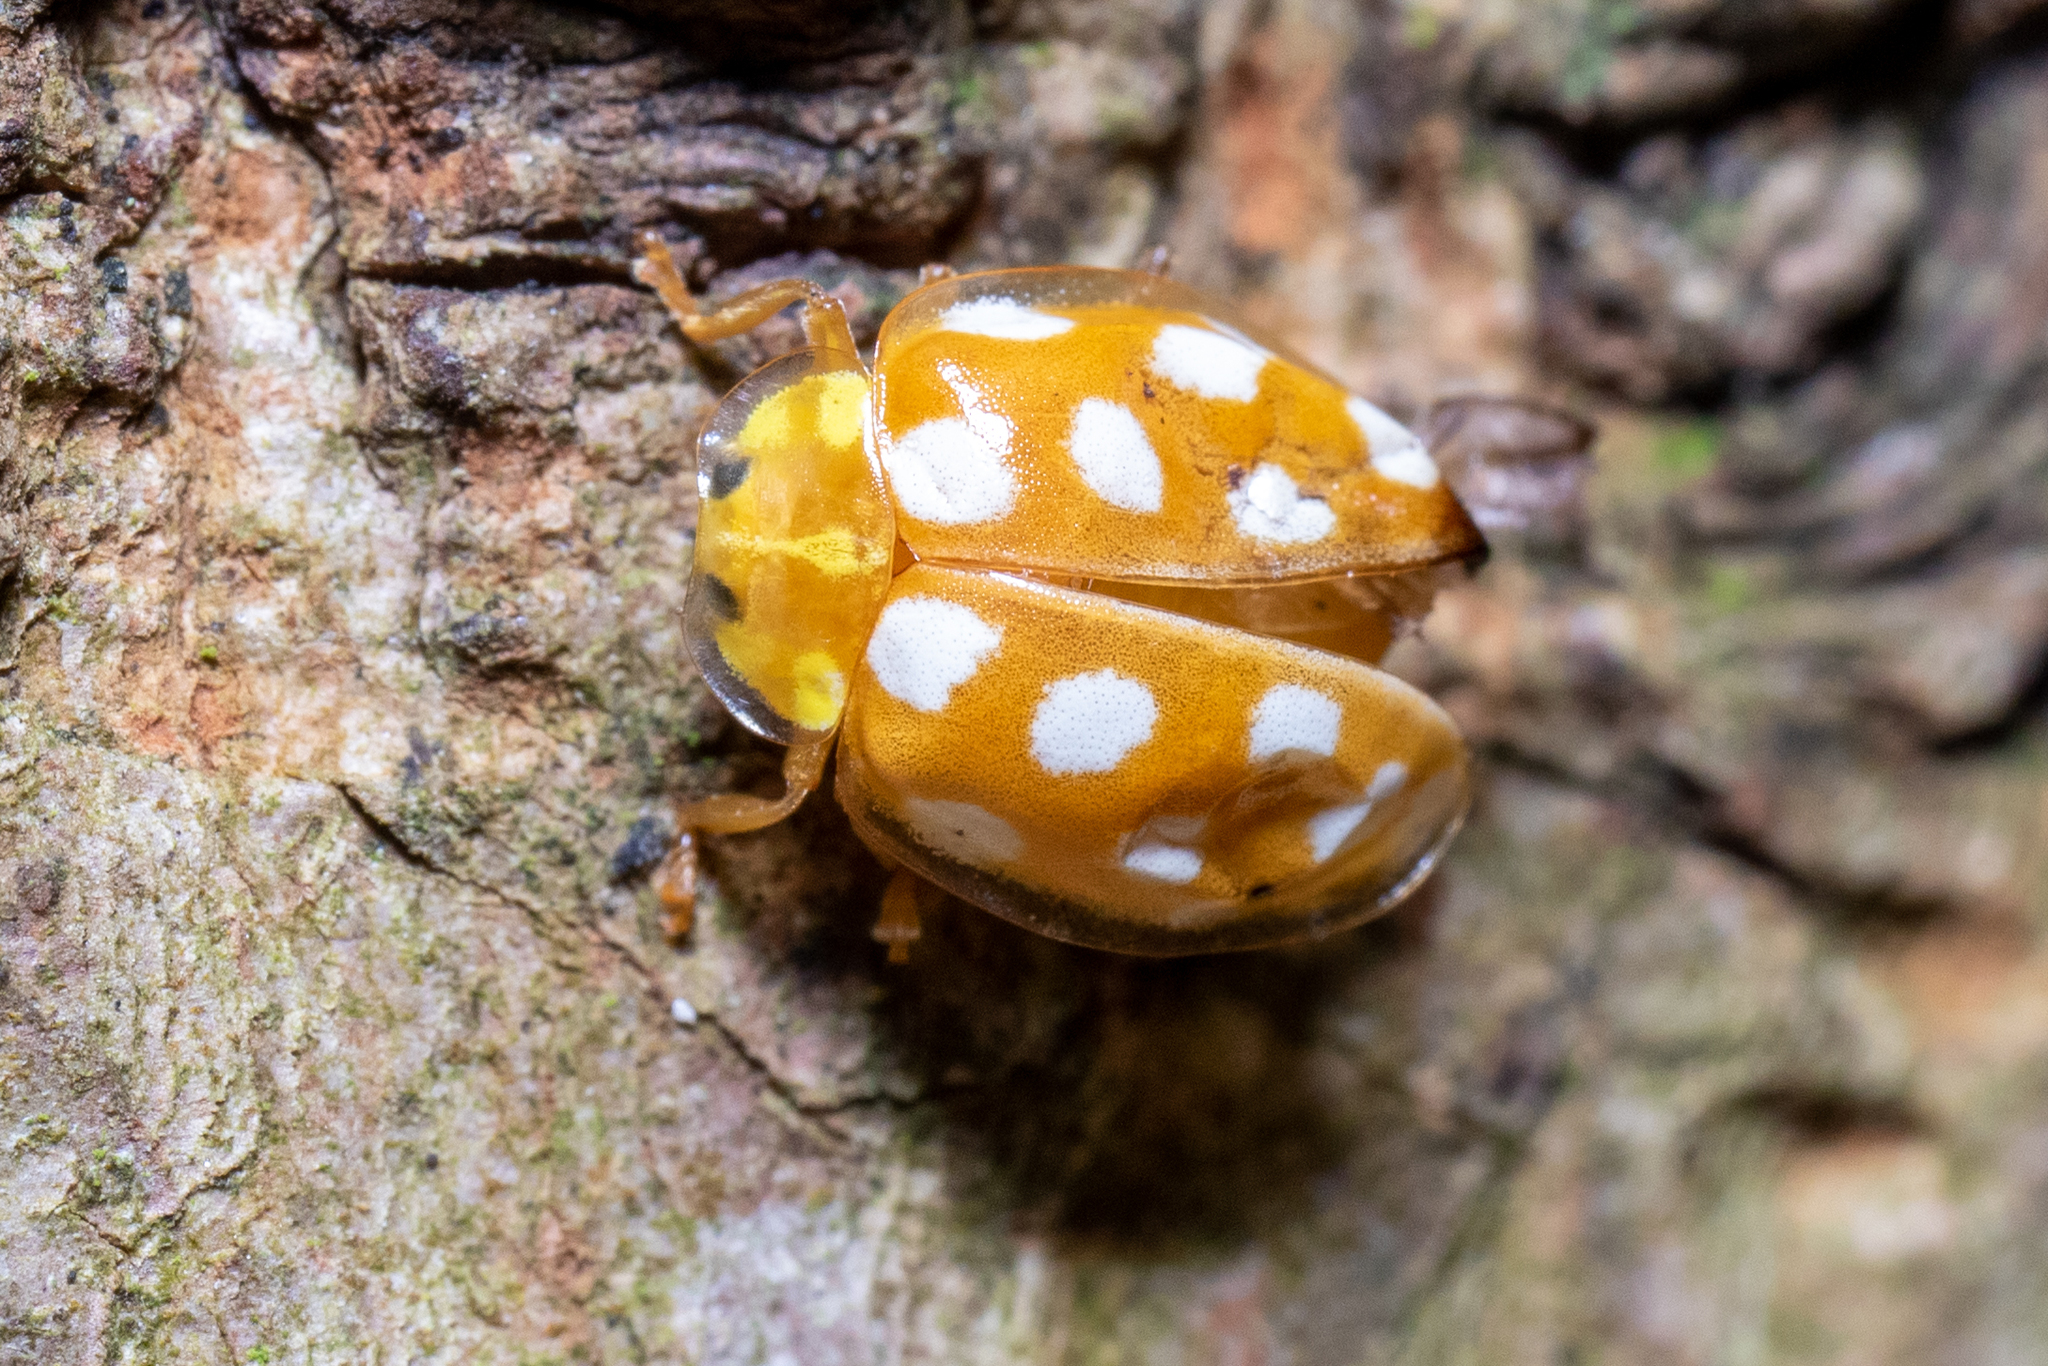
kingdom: Animalia
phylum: Arthropoda
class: Insecta
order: Coleoptera
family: Coccinellidae
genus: Halyzia
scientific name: Halyzia sedecimguttata
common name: Orange ladybird
